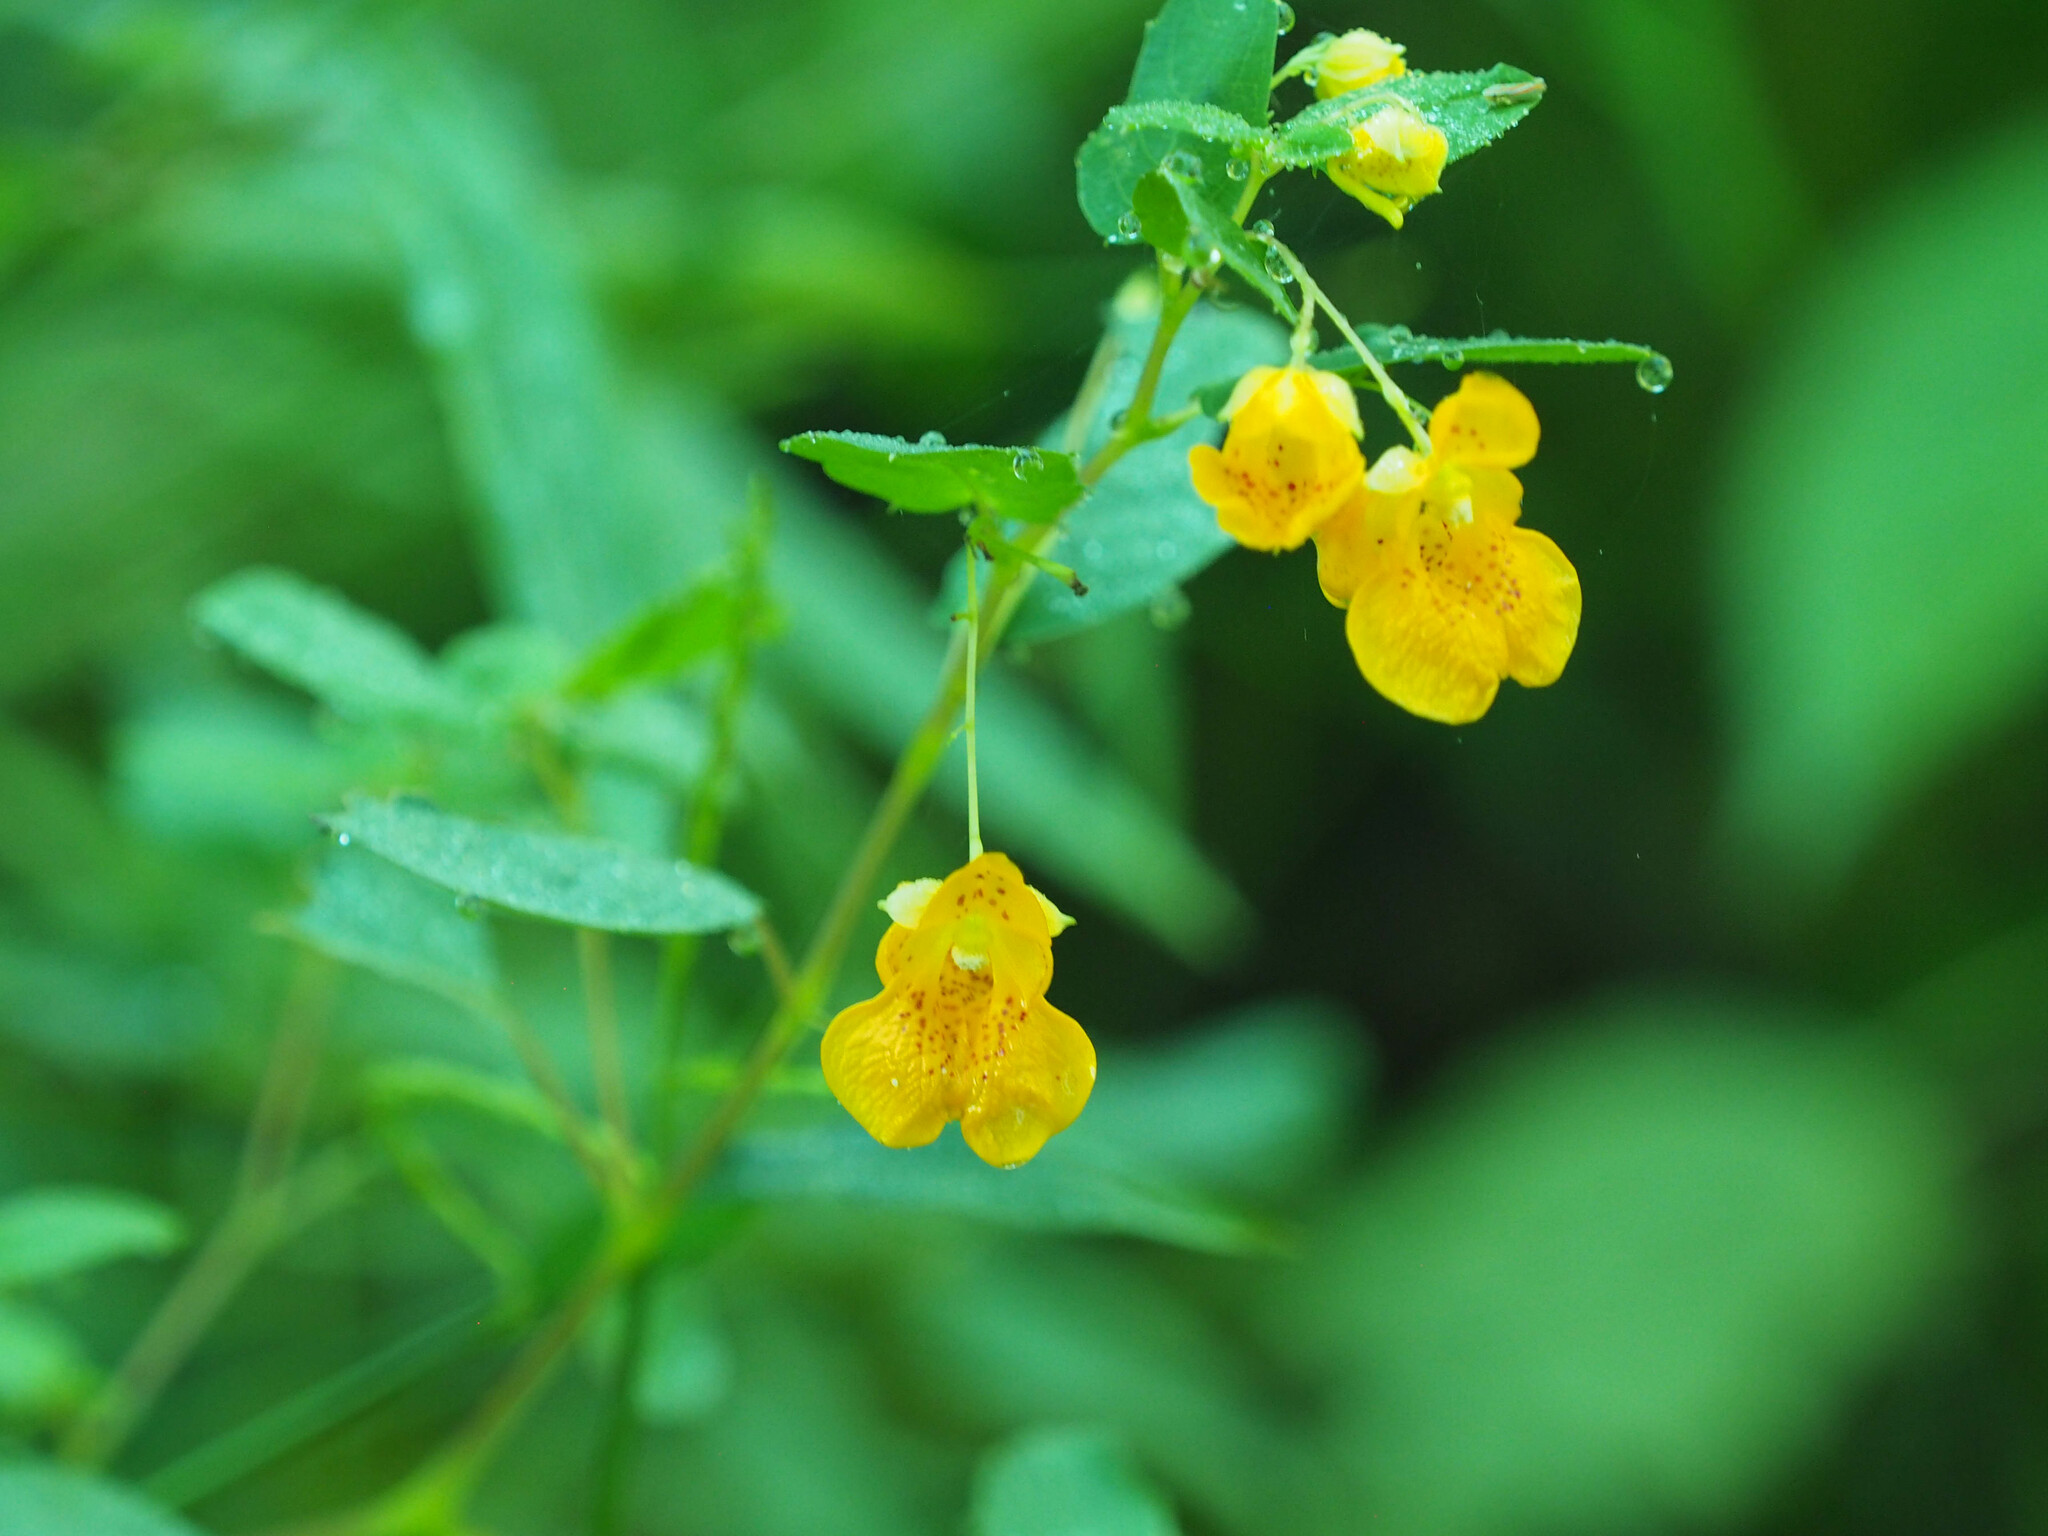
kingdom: Plantae
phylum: Tracheophyta
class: Magnoliopsida
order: Ericales
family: Balsaminaceae
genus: Impatiens
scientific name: Impatiens capensis
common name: Orange balsam
